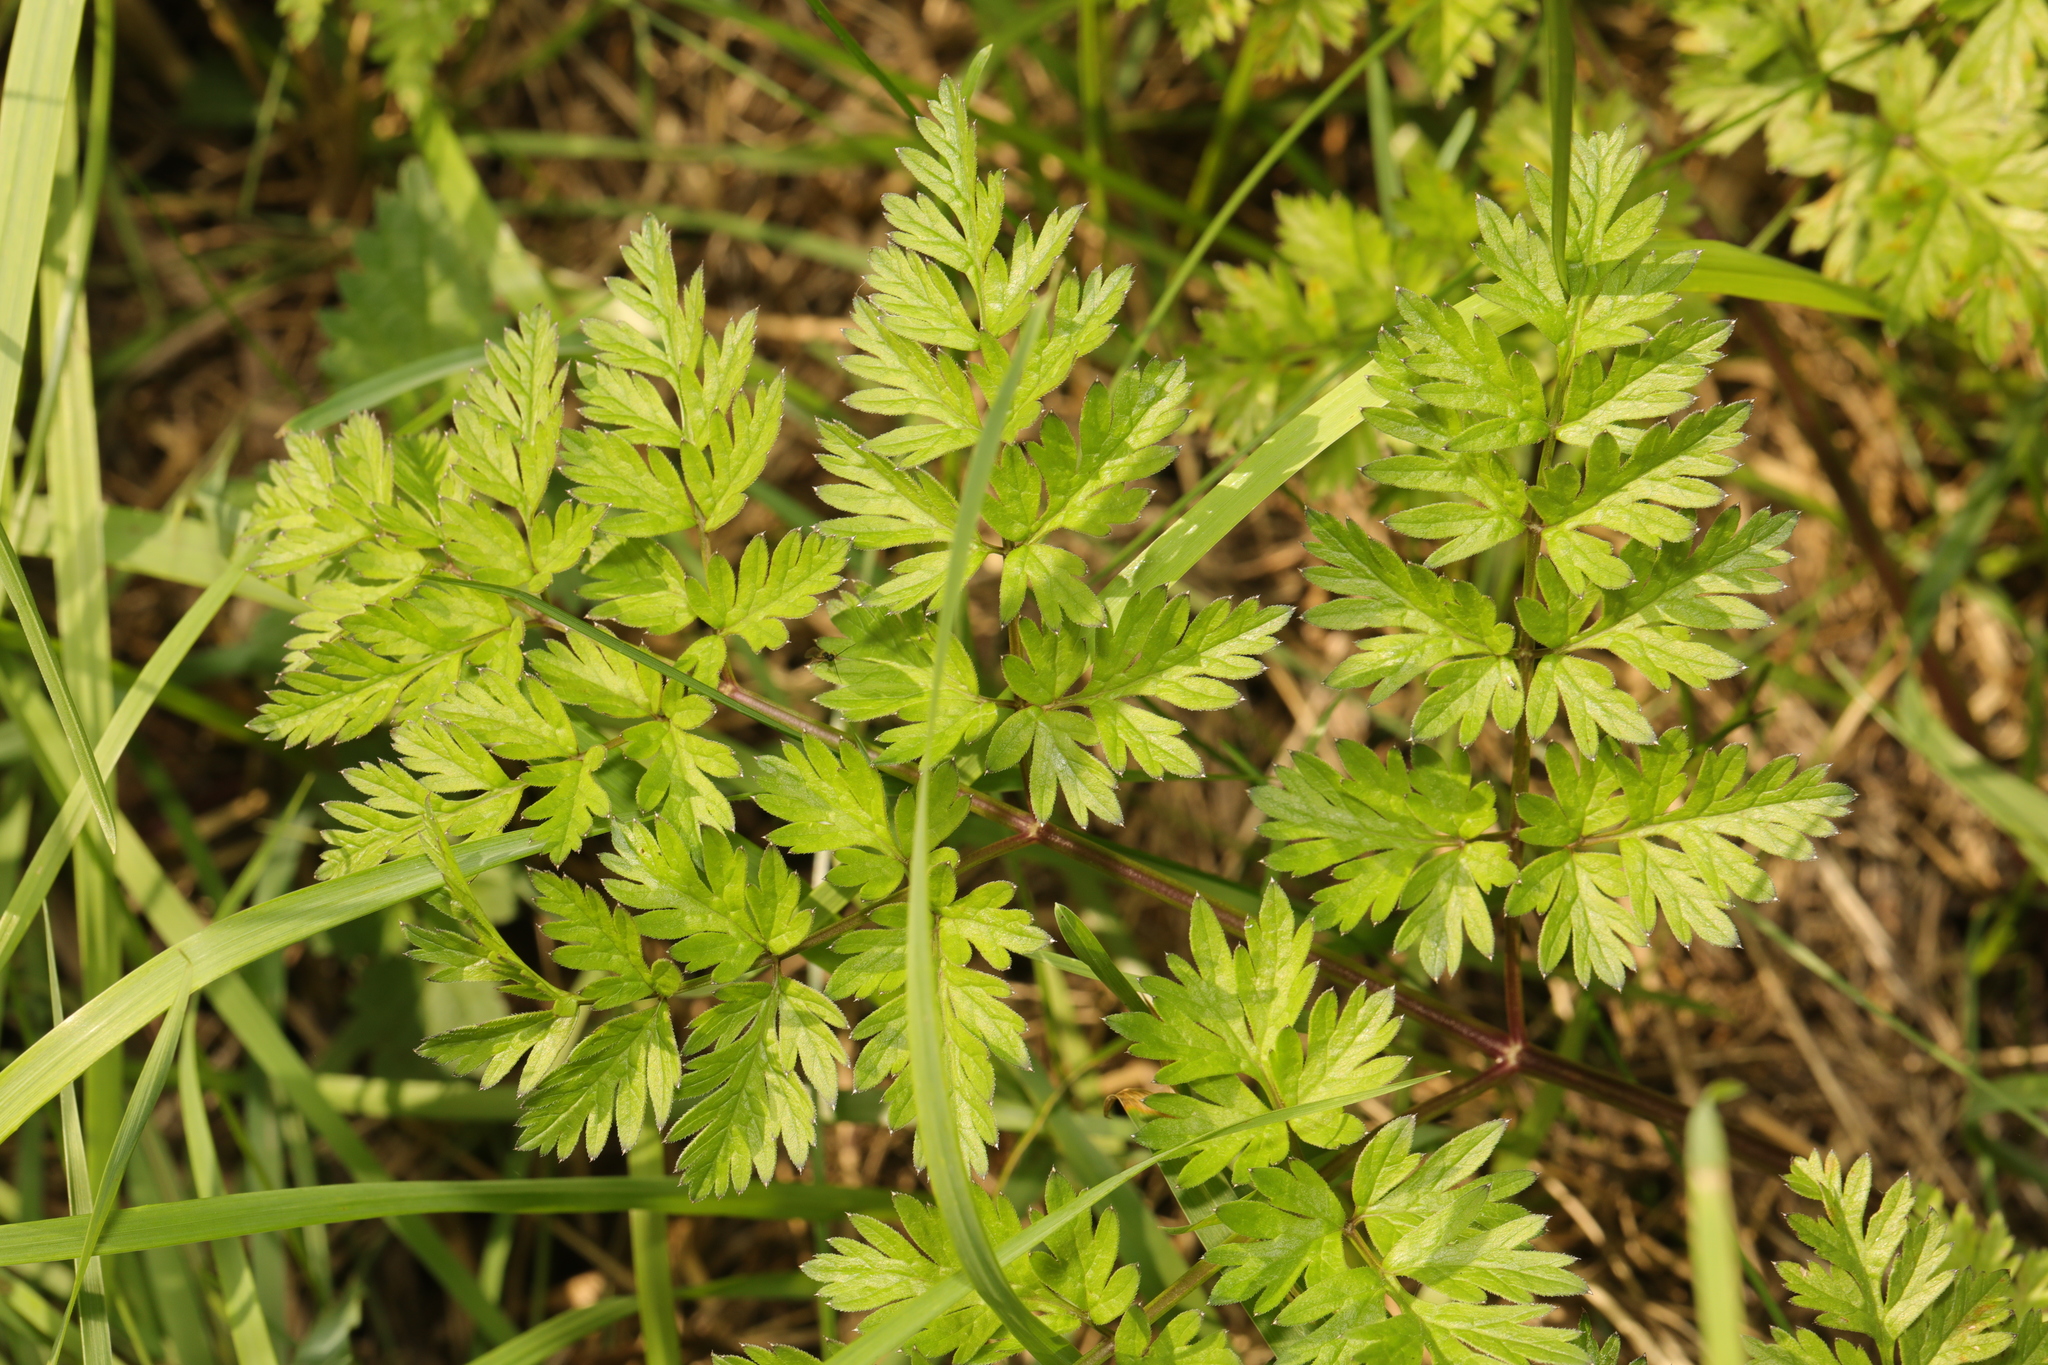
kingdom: Plantae
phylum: Tracheophyta
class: Magnoliopsida
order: Apiales
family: Apiaceae
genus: Anthriscus
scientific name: Anthriscus sylvestris
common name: Cow parsley
